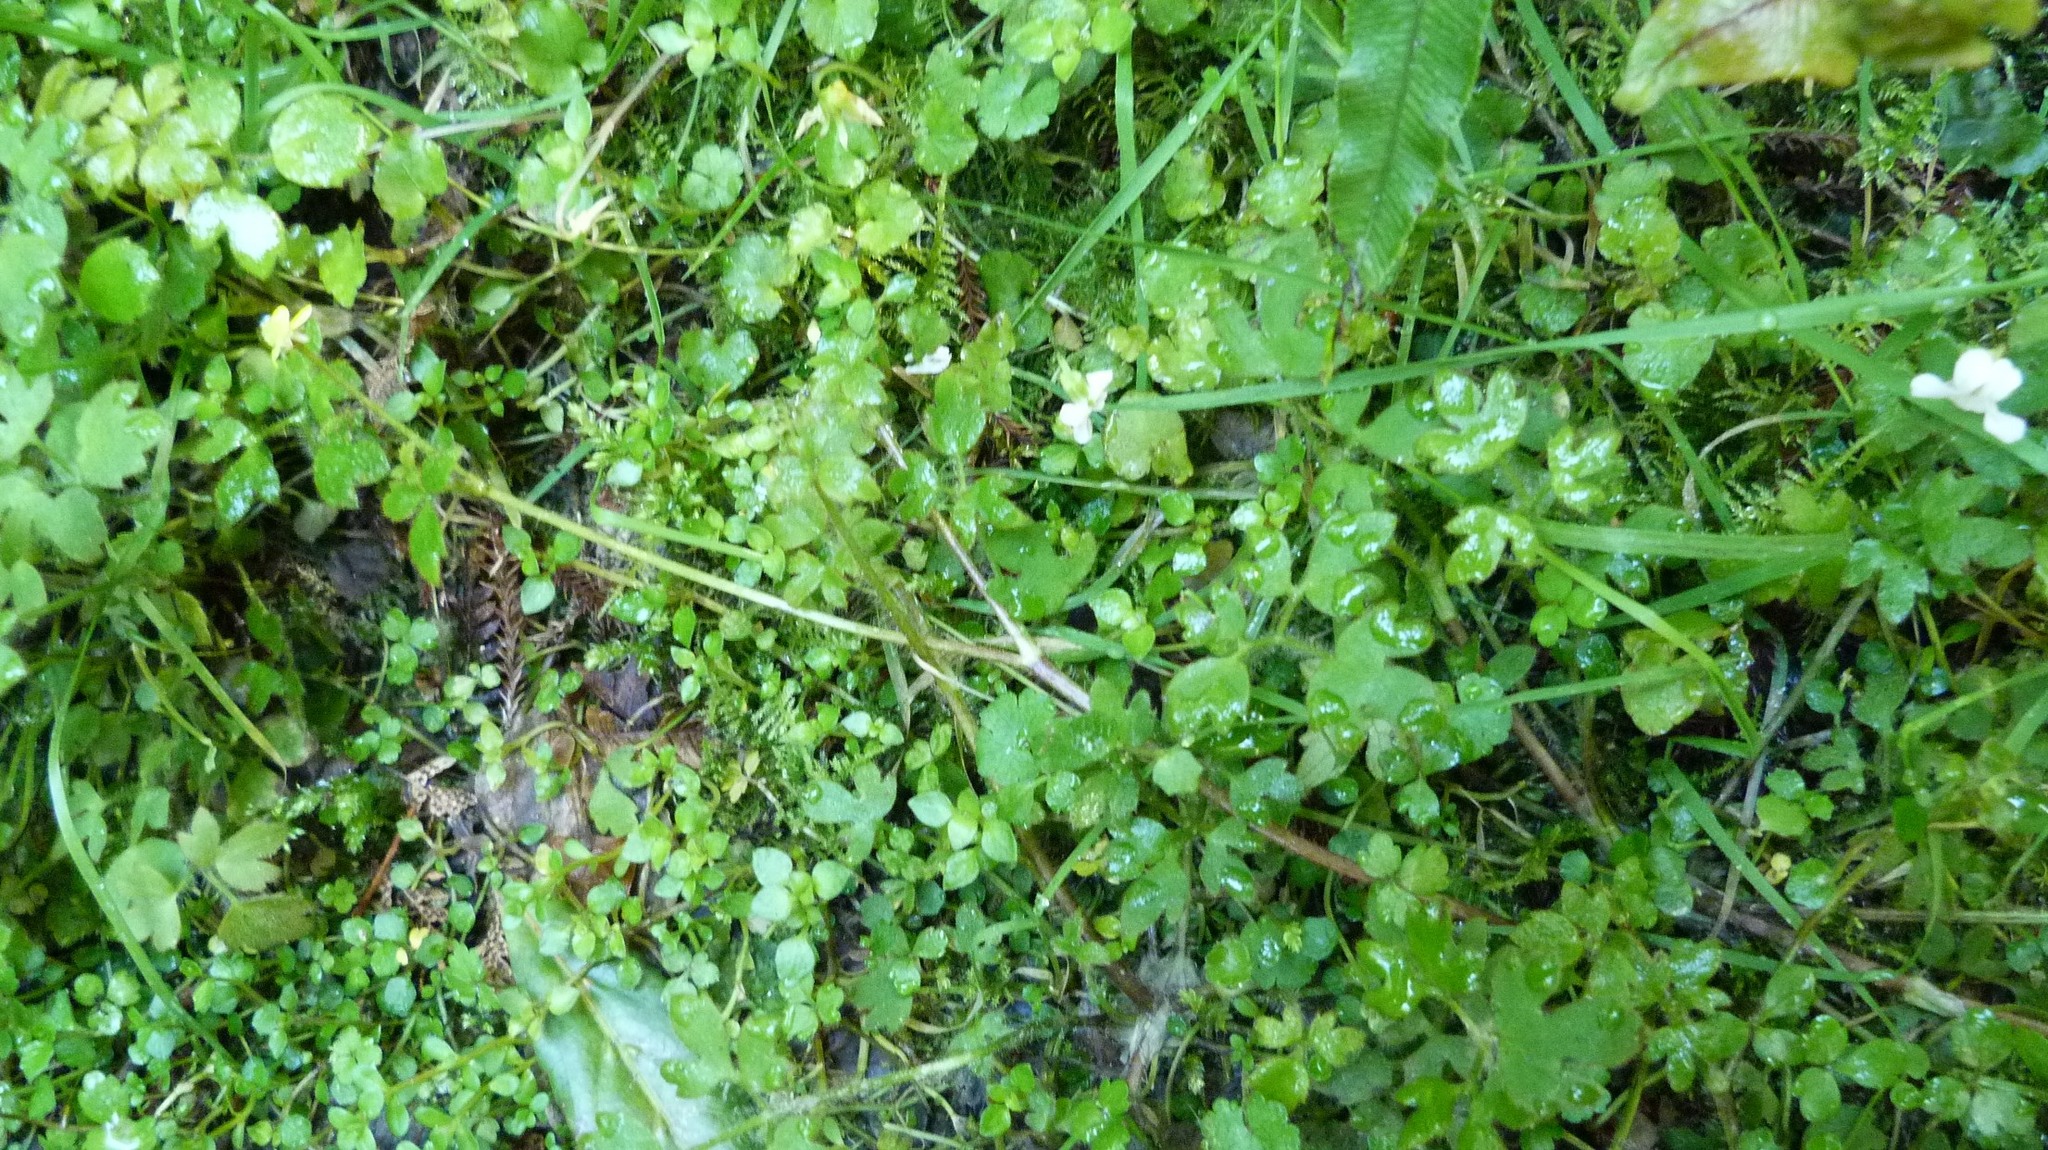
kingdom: Plantae
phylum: Tracheophyta
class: Magnoliopsida
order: Ranunculales
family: Ranunculaceae
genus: Ranunculus
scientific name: Ranunculus reflexus
